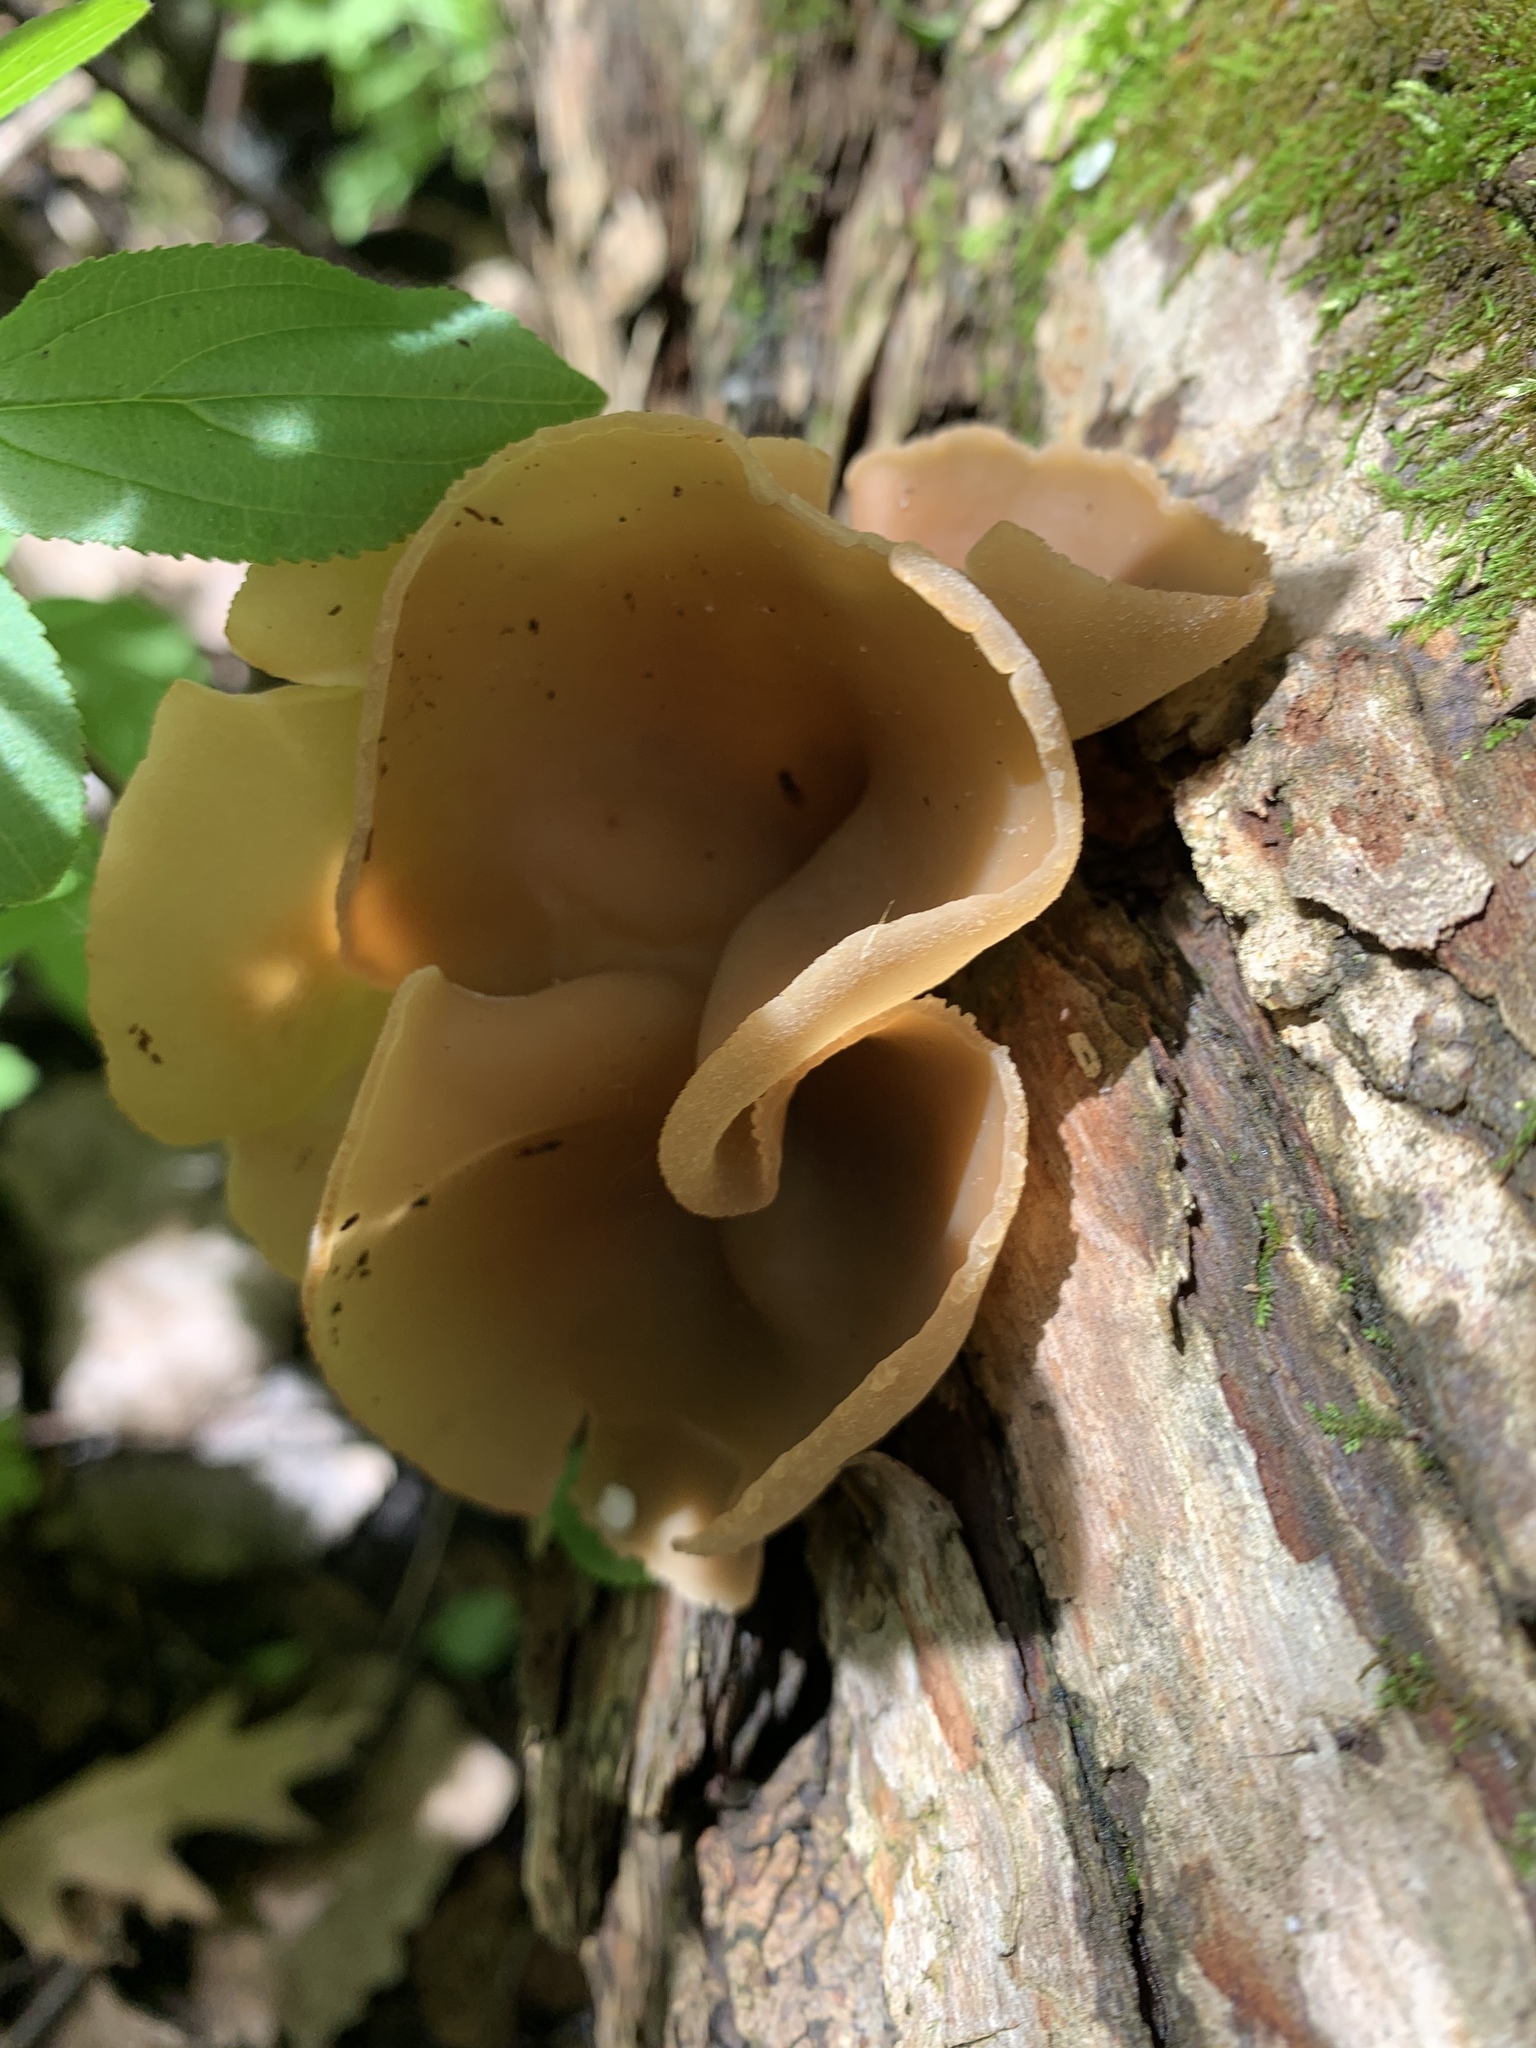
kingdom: Fungi
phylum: Ascomycota
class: Pezizomycetes
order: Pezizales
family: Pezizaceae
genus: Peziza
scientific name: Peziza varia
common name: Layered cup
